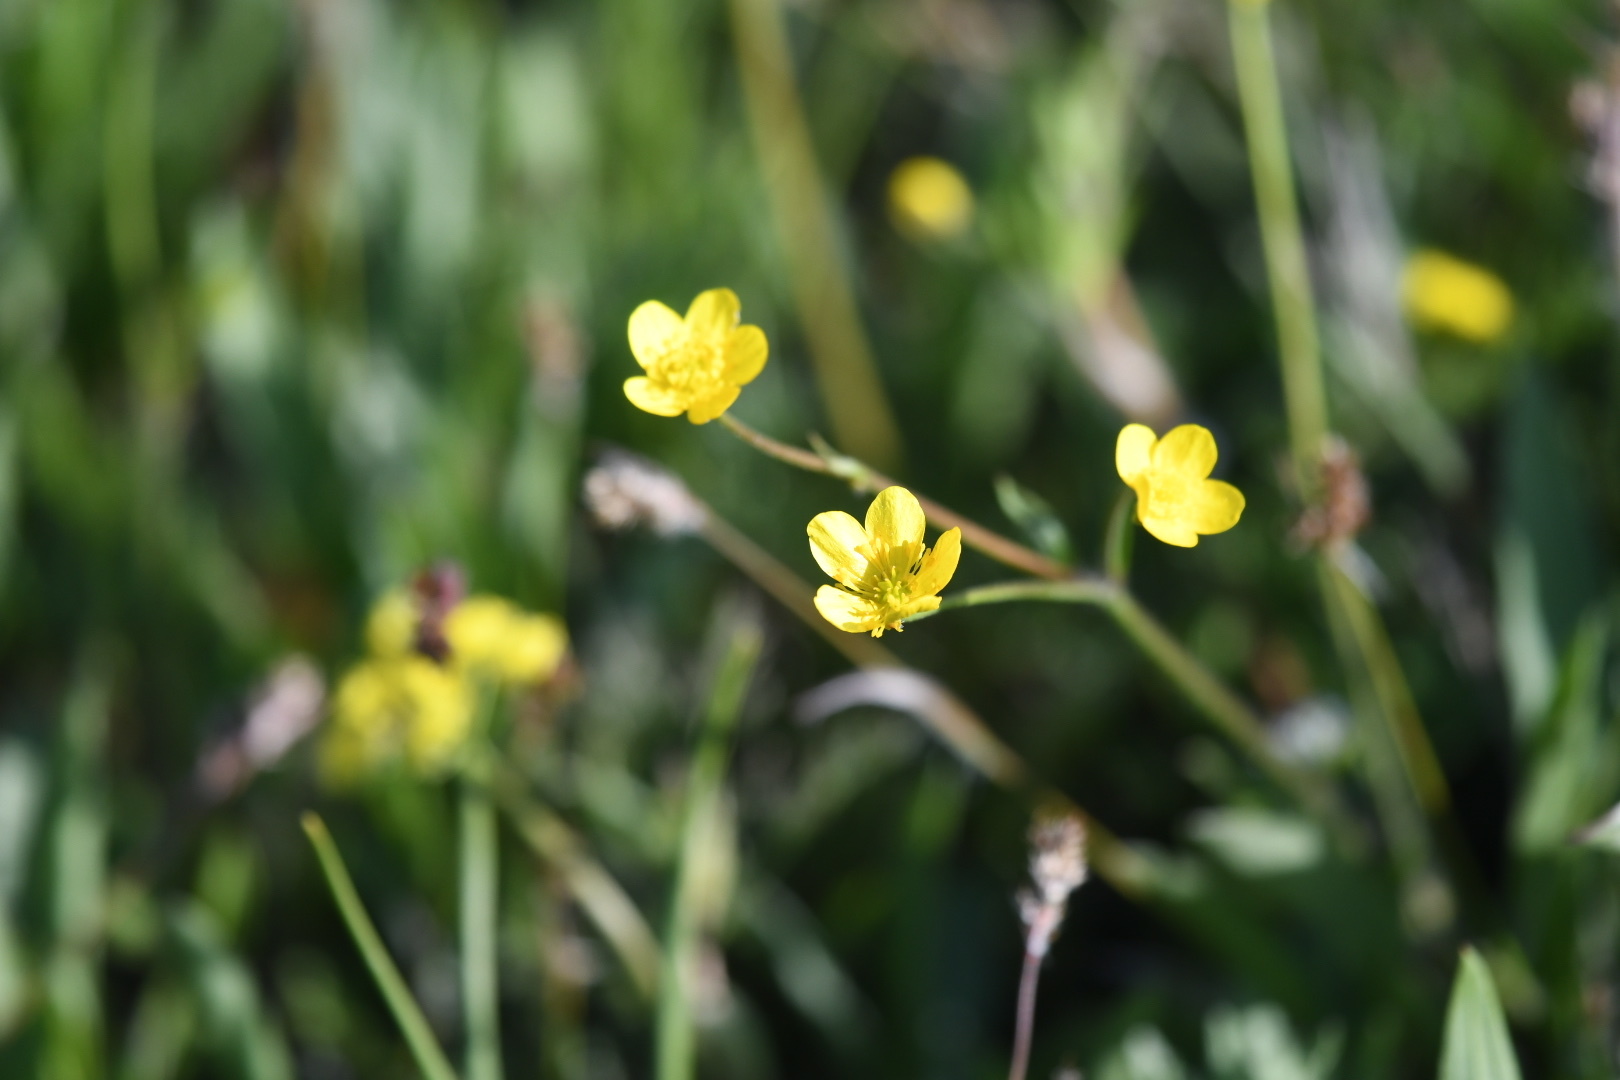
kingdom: Plantae
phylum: Tracheophyta
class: Magnoliopsida
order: Ranunculales
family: Ranunculaceae
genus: Ranunculus
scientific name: Ranunculus occidentalis
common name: Western buttercup
